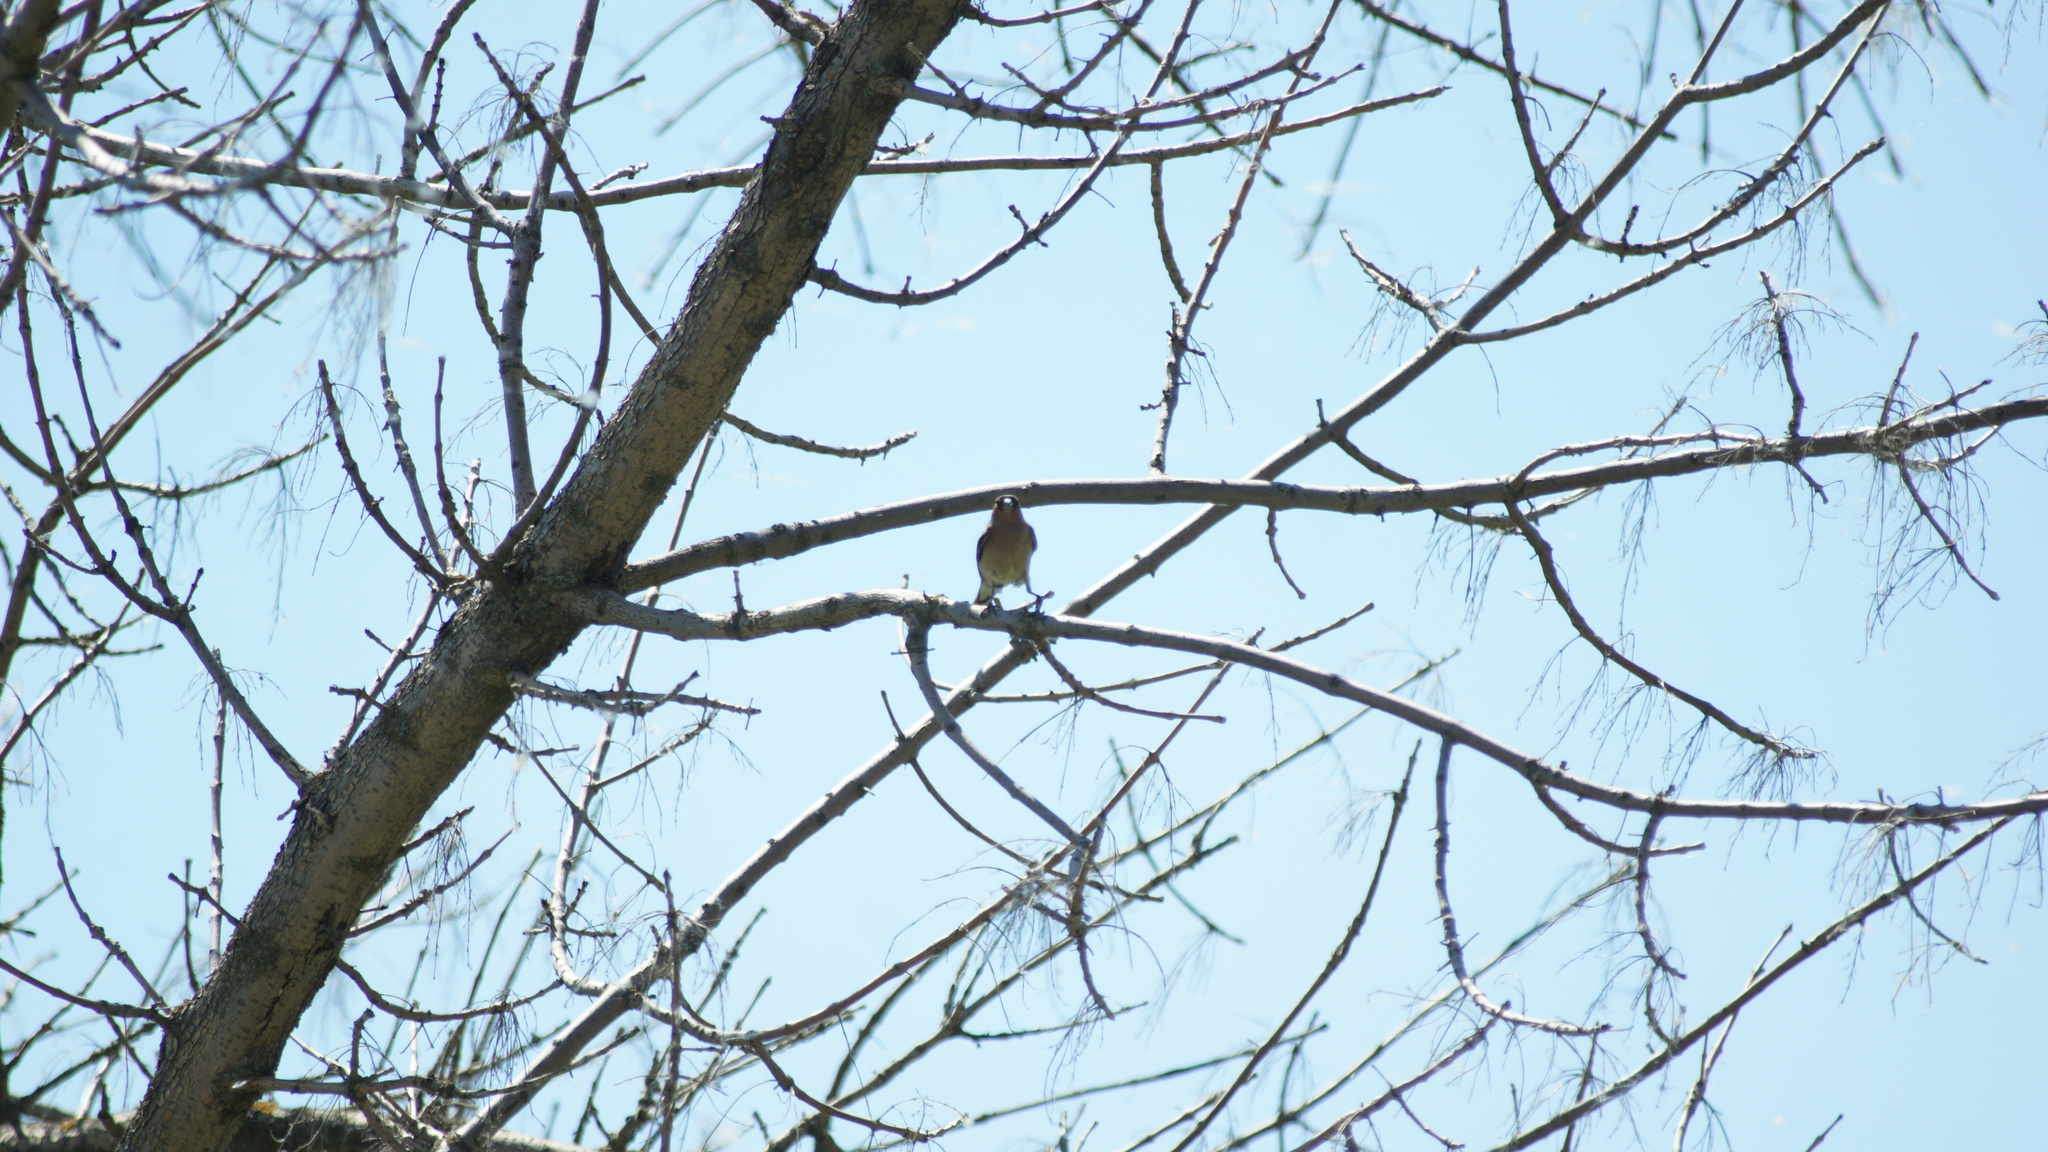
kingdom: Animalia
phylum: Chordata
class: Aves
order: Passeriformes
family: Fringillidae
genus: Fringilla
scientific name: Fringilla coelebs
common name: Common chaffinch
